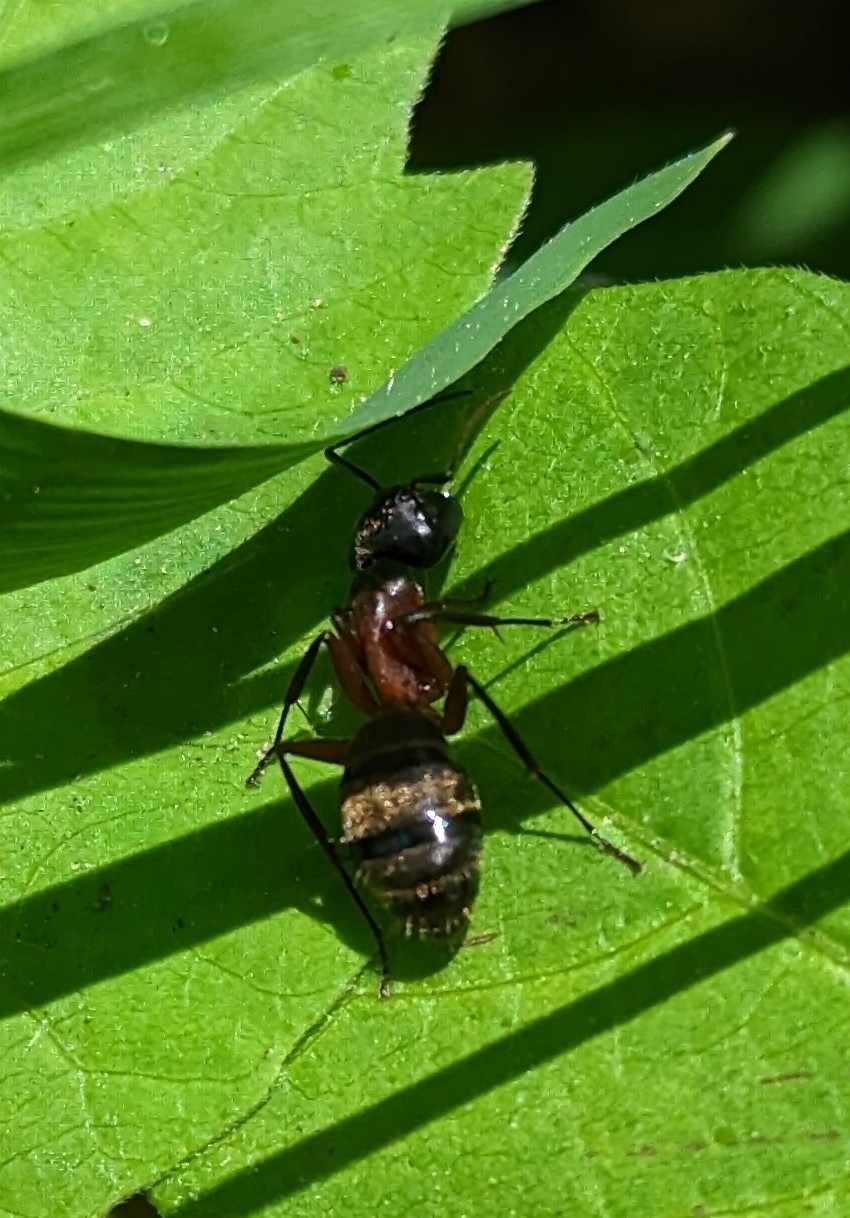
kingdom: Animalia
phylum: Arthropoda
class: Insecta
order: Hymenoptera
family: Formicidae
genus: Camponotus
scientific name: Camponotus chromaiodes
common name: Red carpenter ant
